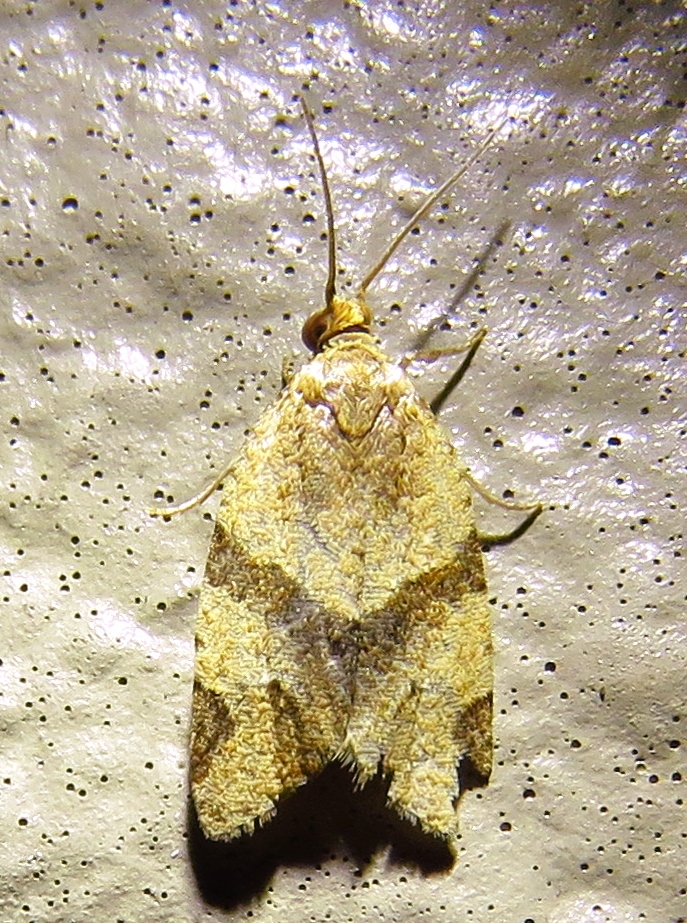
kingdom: Animalia
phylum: Arthropoda
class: Insecta
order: Lepidoptera
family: Tortricidae
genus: Clepsis
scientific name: Clepsis peritana
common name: Garden tortrix
